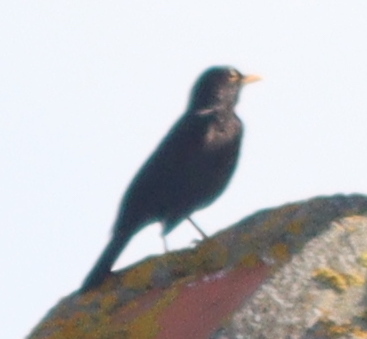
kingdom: Animalia
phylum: Chordata
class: Aves
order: Passeriformes
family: Turdidae
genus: Turdus
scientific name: Turdus merula
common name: Common blackbird
